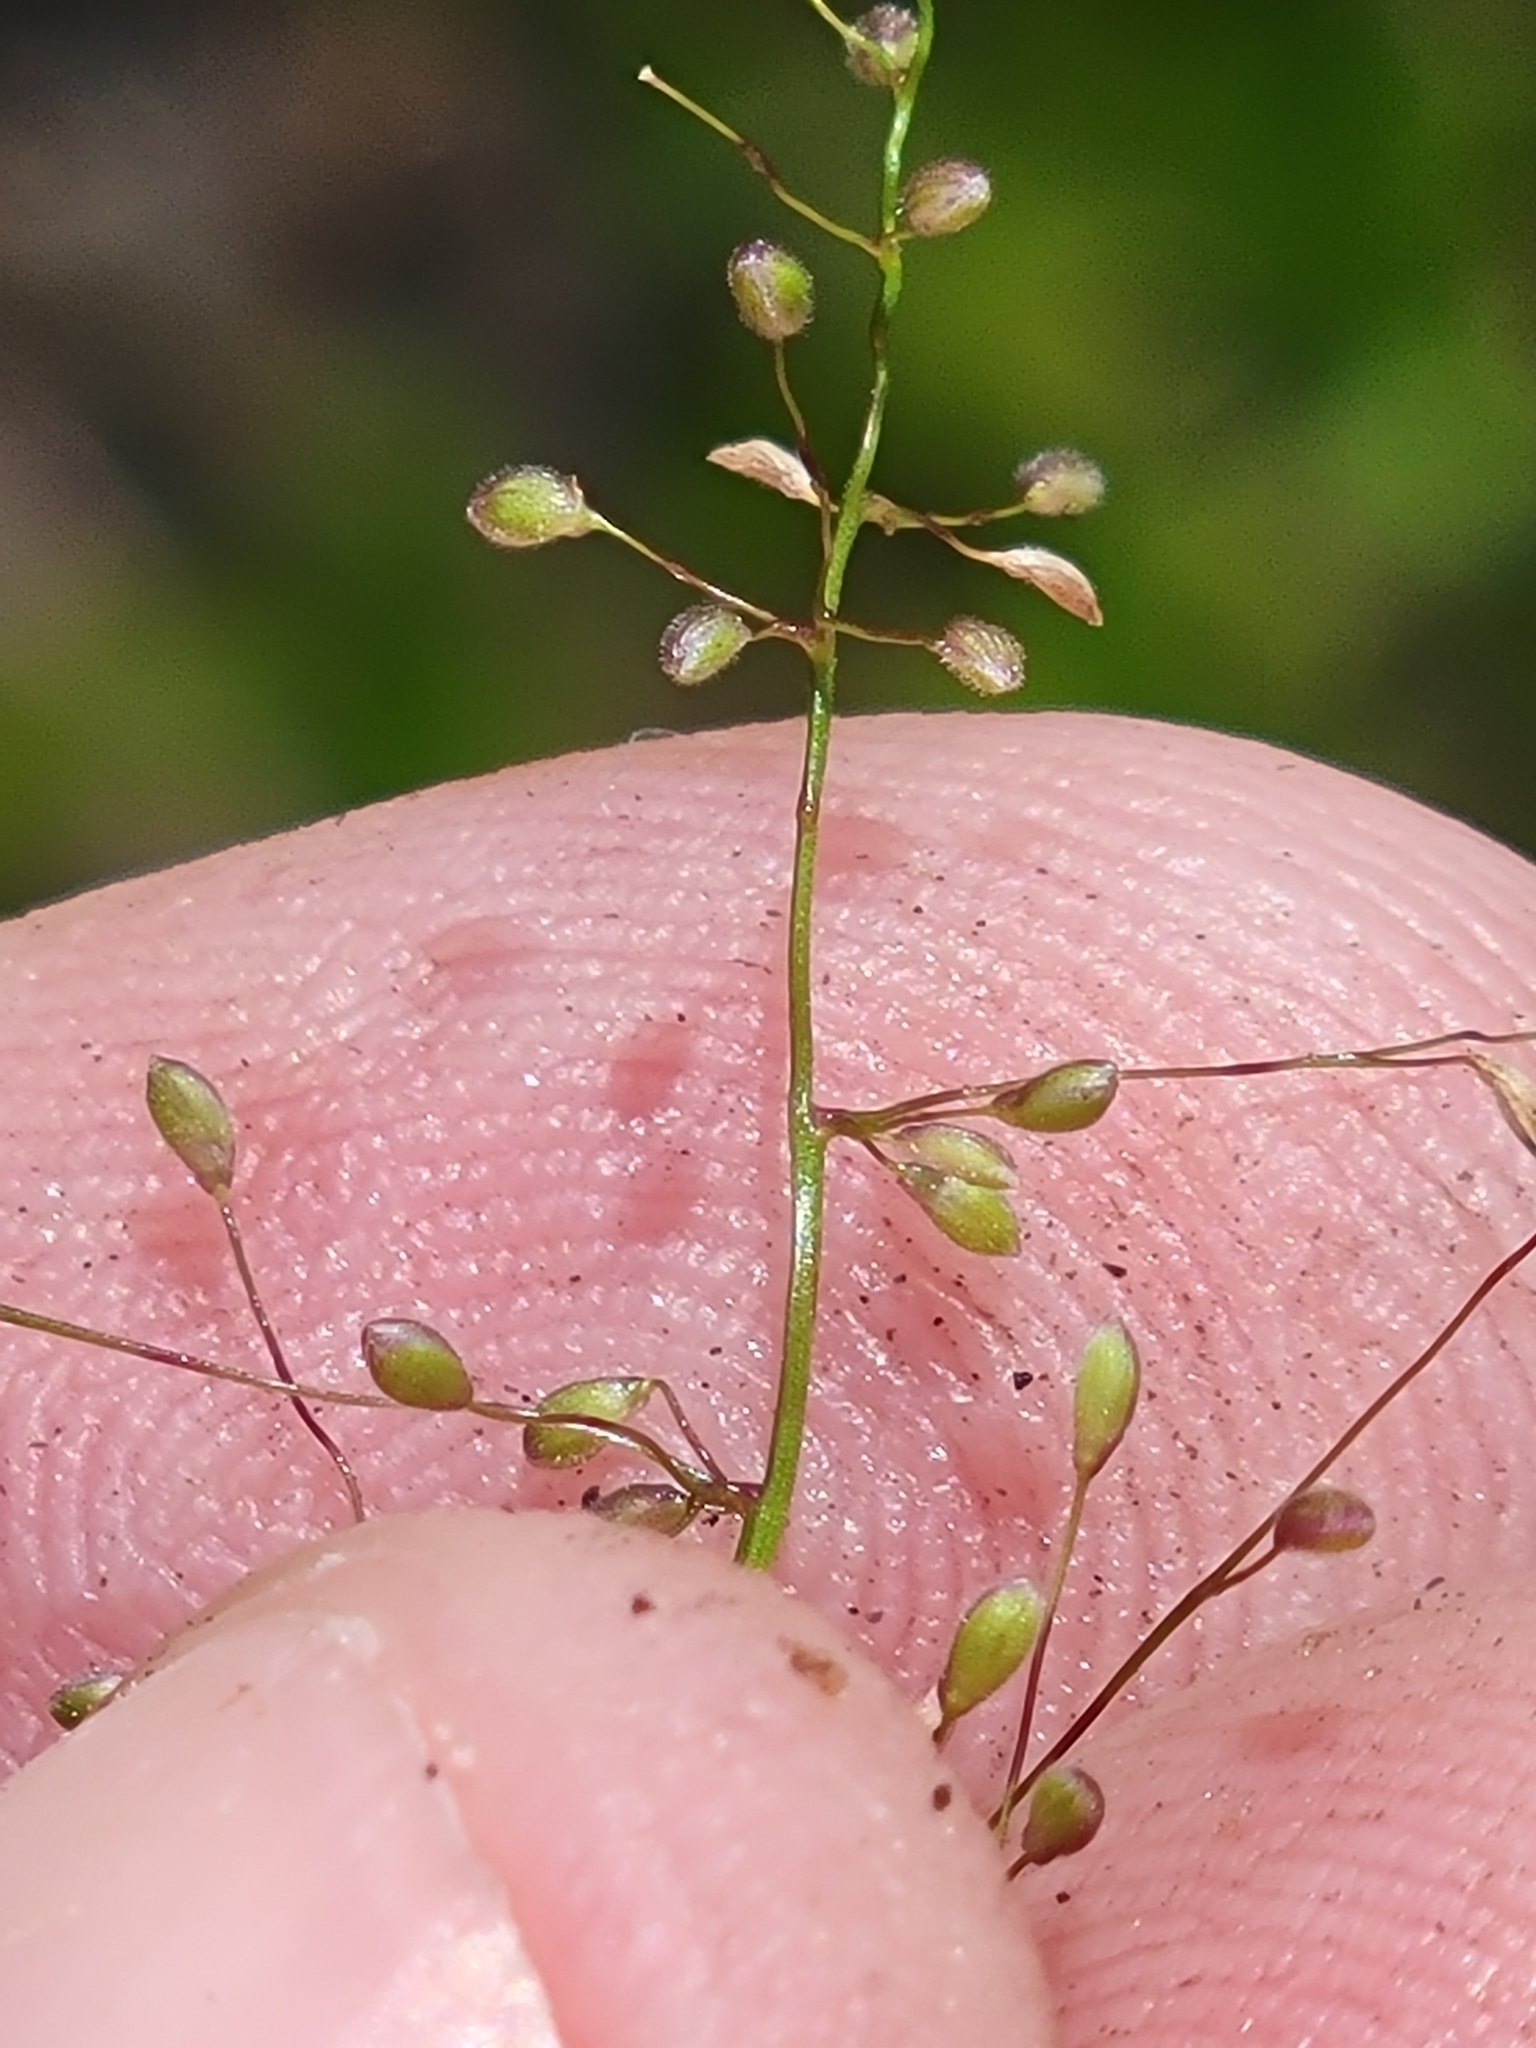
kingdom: Plantae
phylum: Tracheophyta
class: Liliopsida
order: Poales
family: Poaceae
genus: Dichanthelium
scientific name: Dichanthelium tenue
